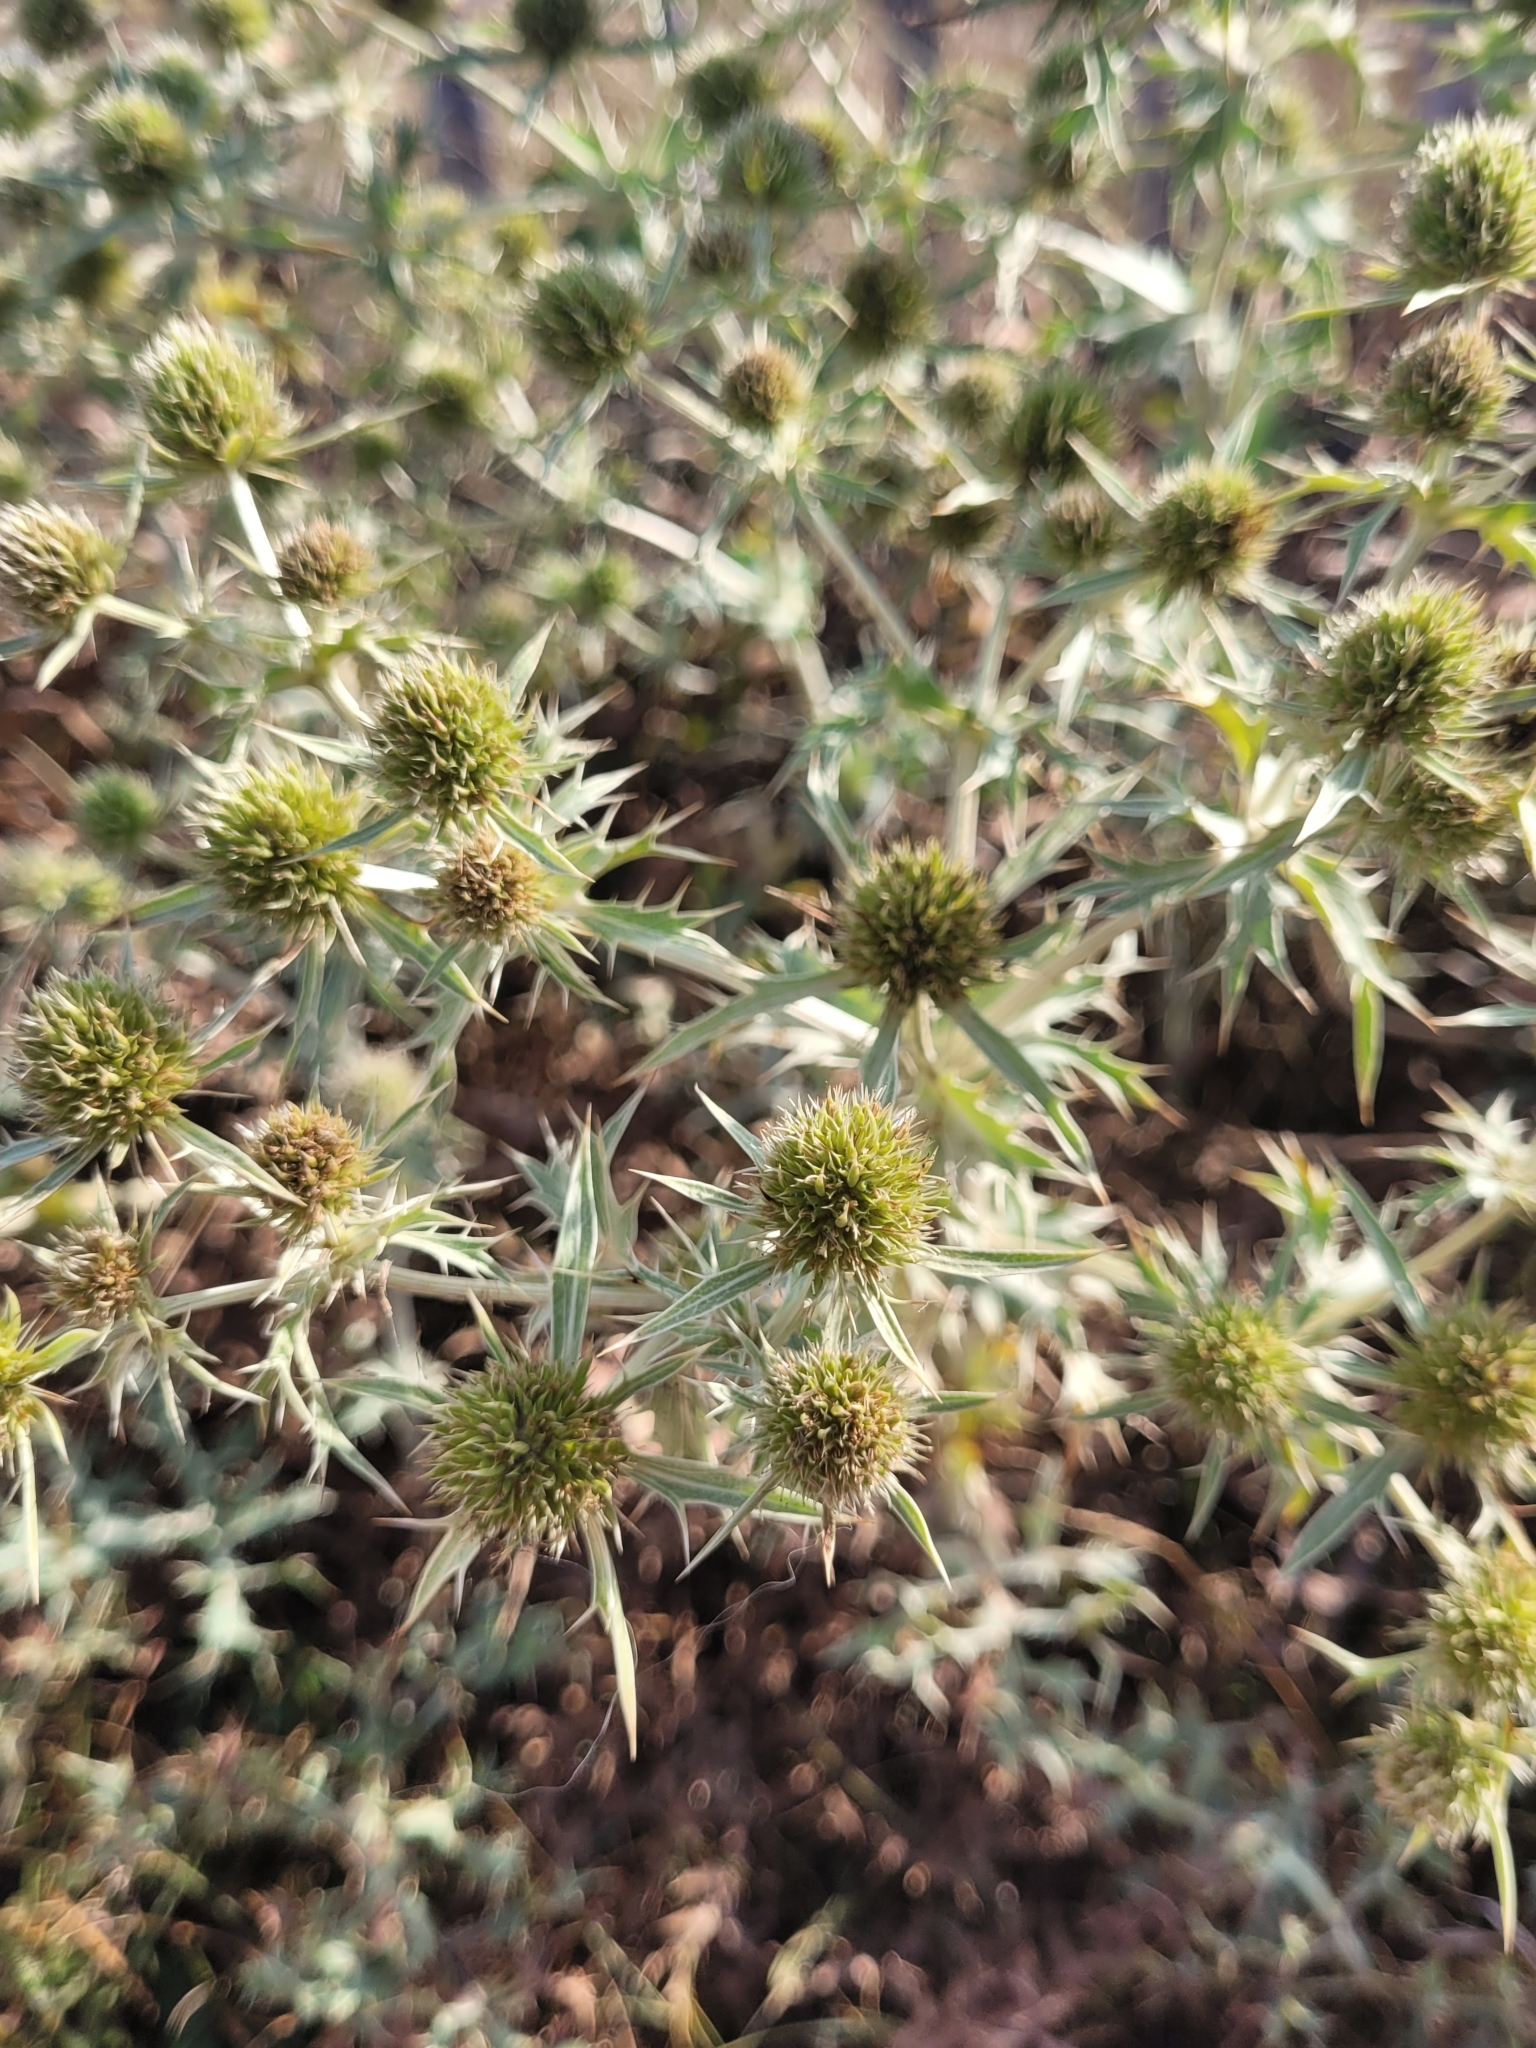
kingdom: Plantae
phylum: Tracheophyta
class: Magnoliopsida
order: Apiales
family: Apiaceae
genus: Eryngium
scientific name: Eryngium campestre
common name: Field eryngo
